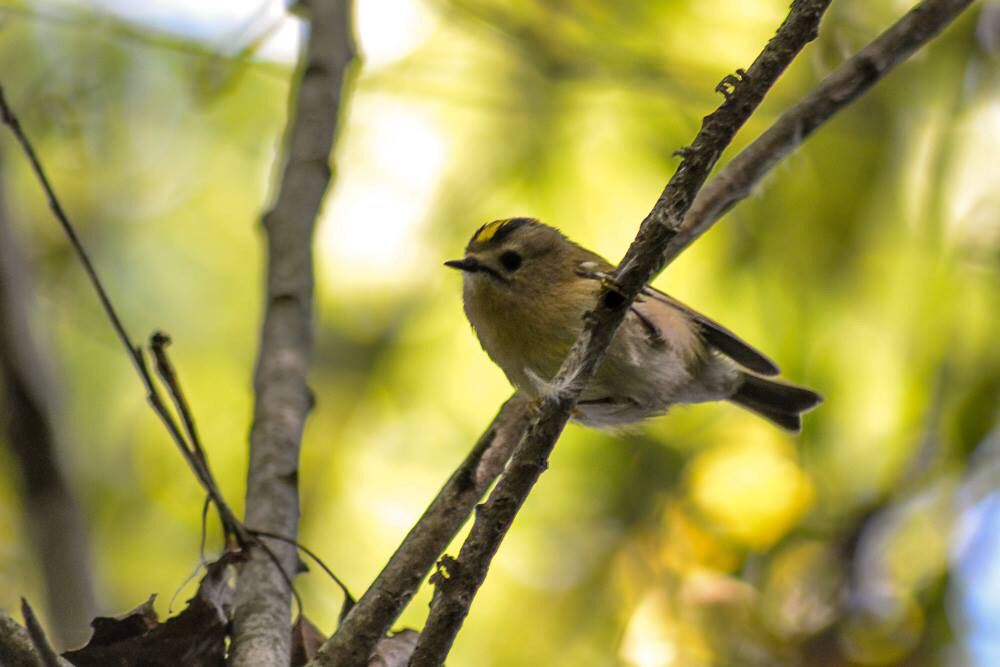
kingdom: Animalia
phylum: Chordata
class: Aves
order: Passeriformes
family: Regulidae
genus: Regulus
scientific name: Regulus regulus
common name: Goldcrest
